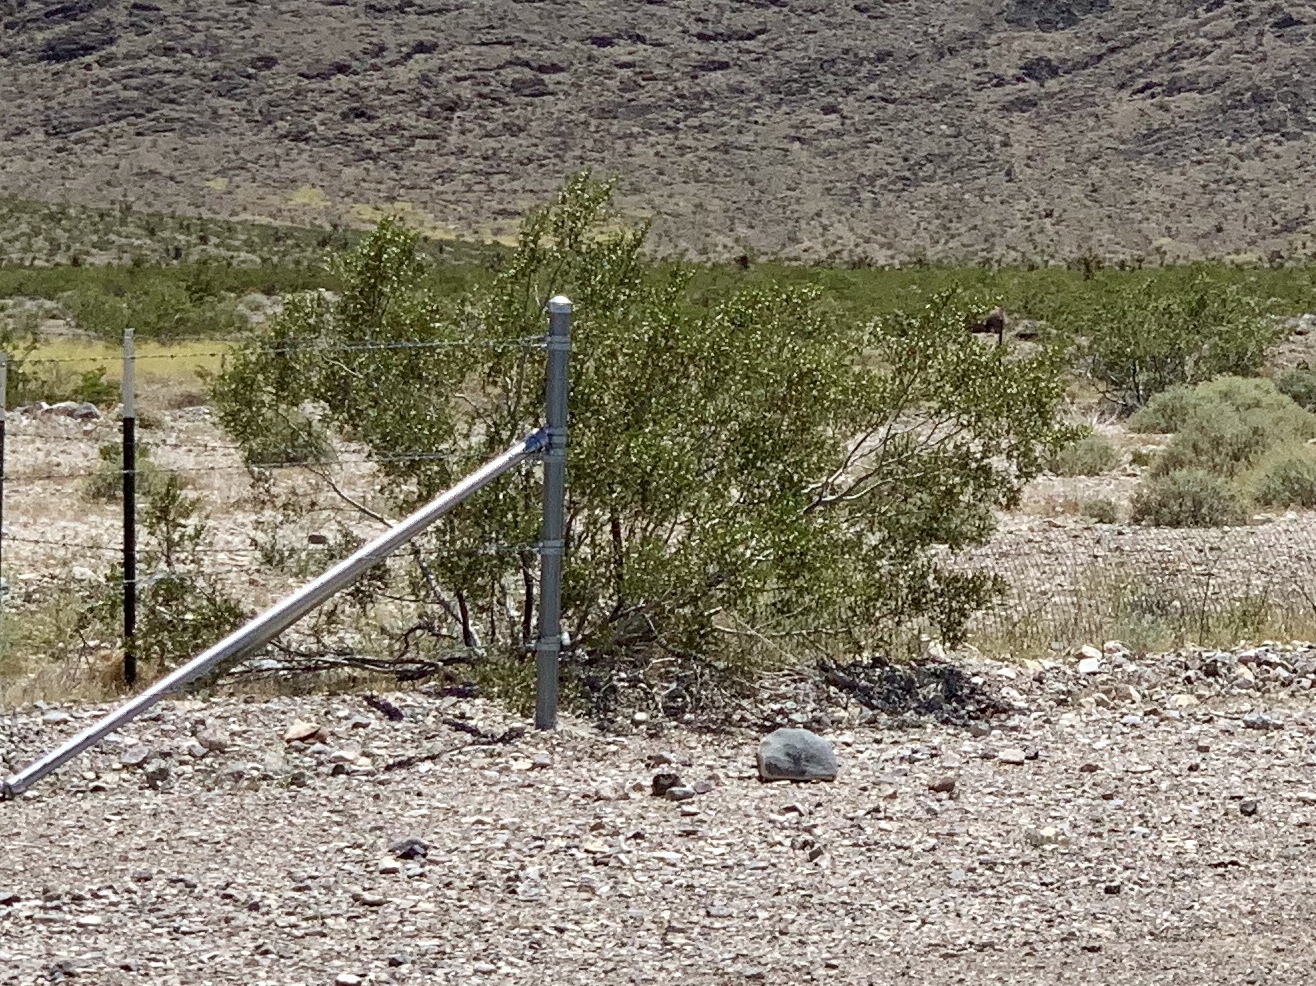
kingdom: Plantae
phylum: Tracheophyta
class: Magnoliopsida
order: Zygophyllales
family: Zygophyllaceae
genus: Larrea
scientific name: Larrea tridentata
